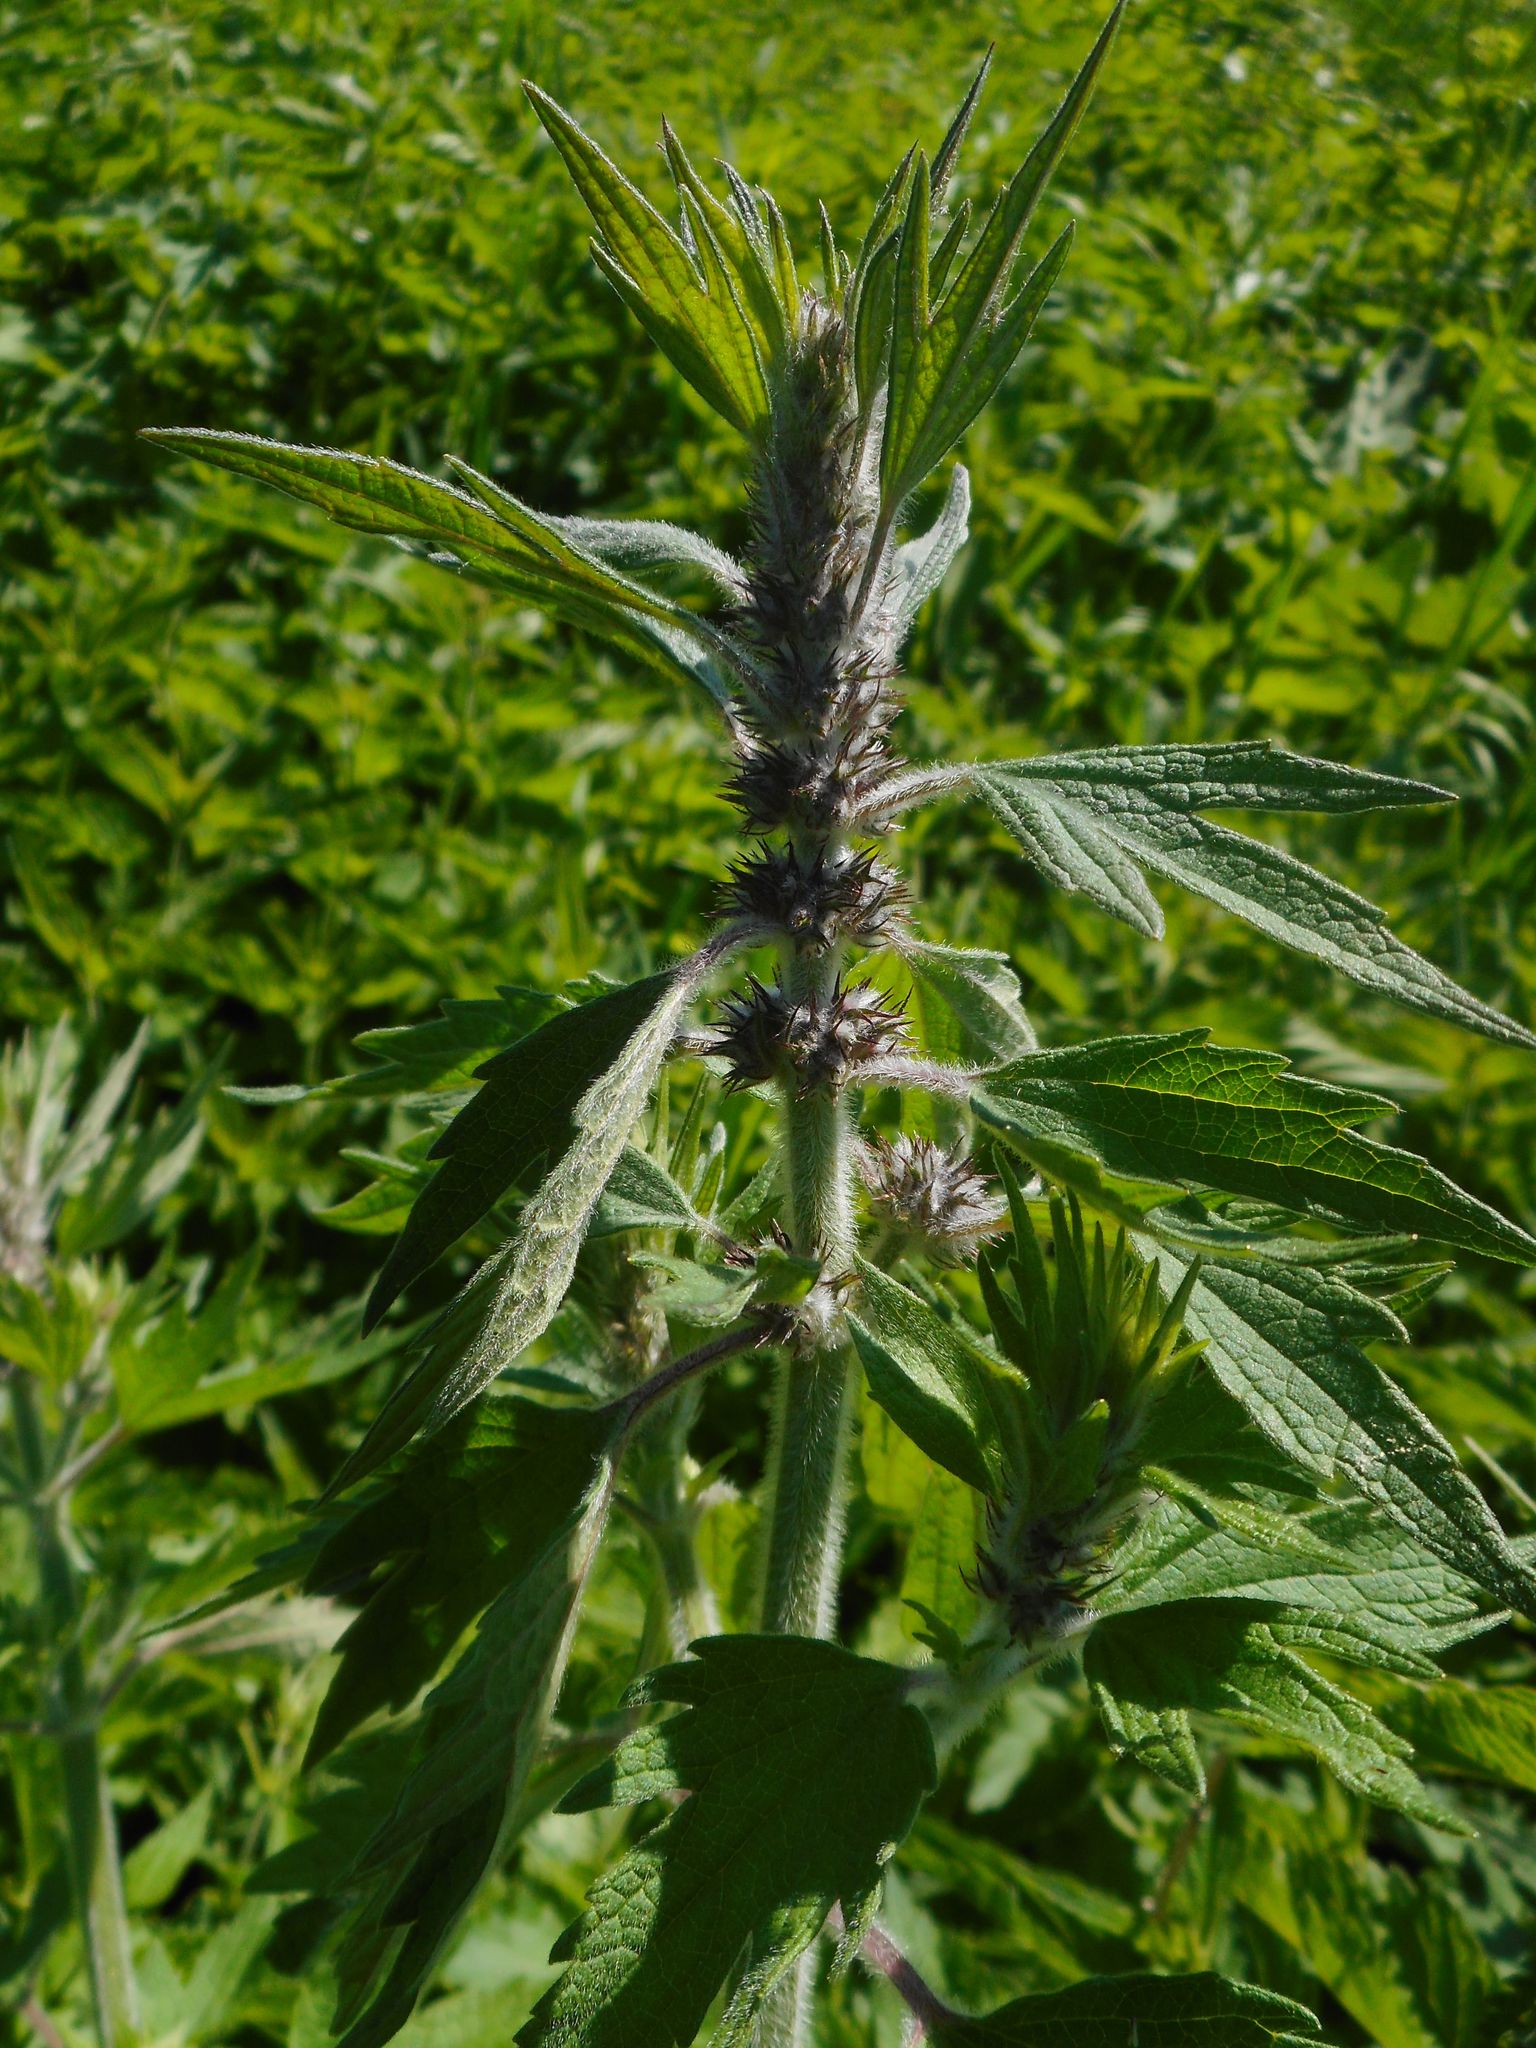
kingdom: Plantae
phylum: Tracheophyta
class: Magnoliopsida
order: Lamiales
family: Lamiaceae
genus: Leonurus
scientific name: Leonurus quinquelobatus
